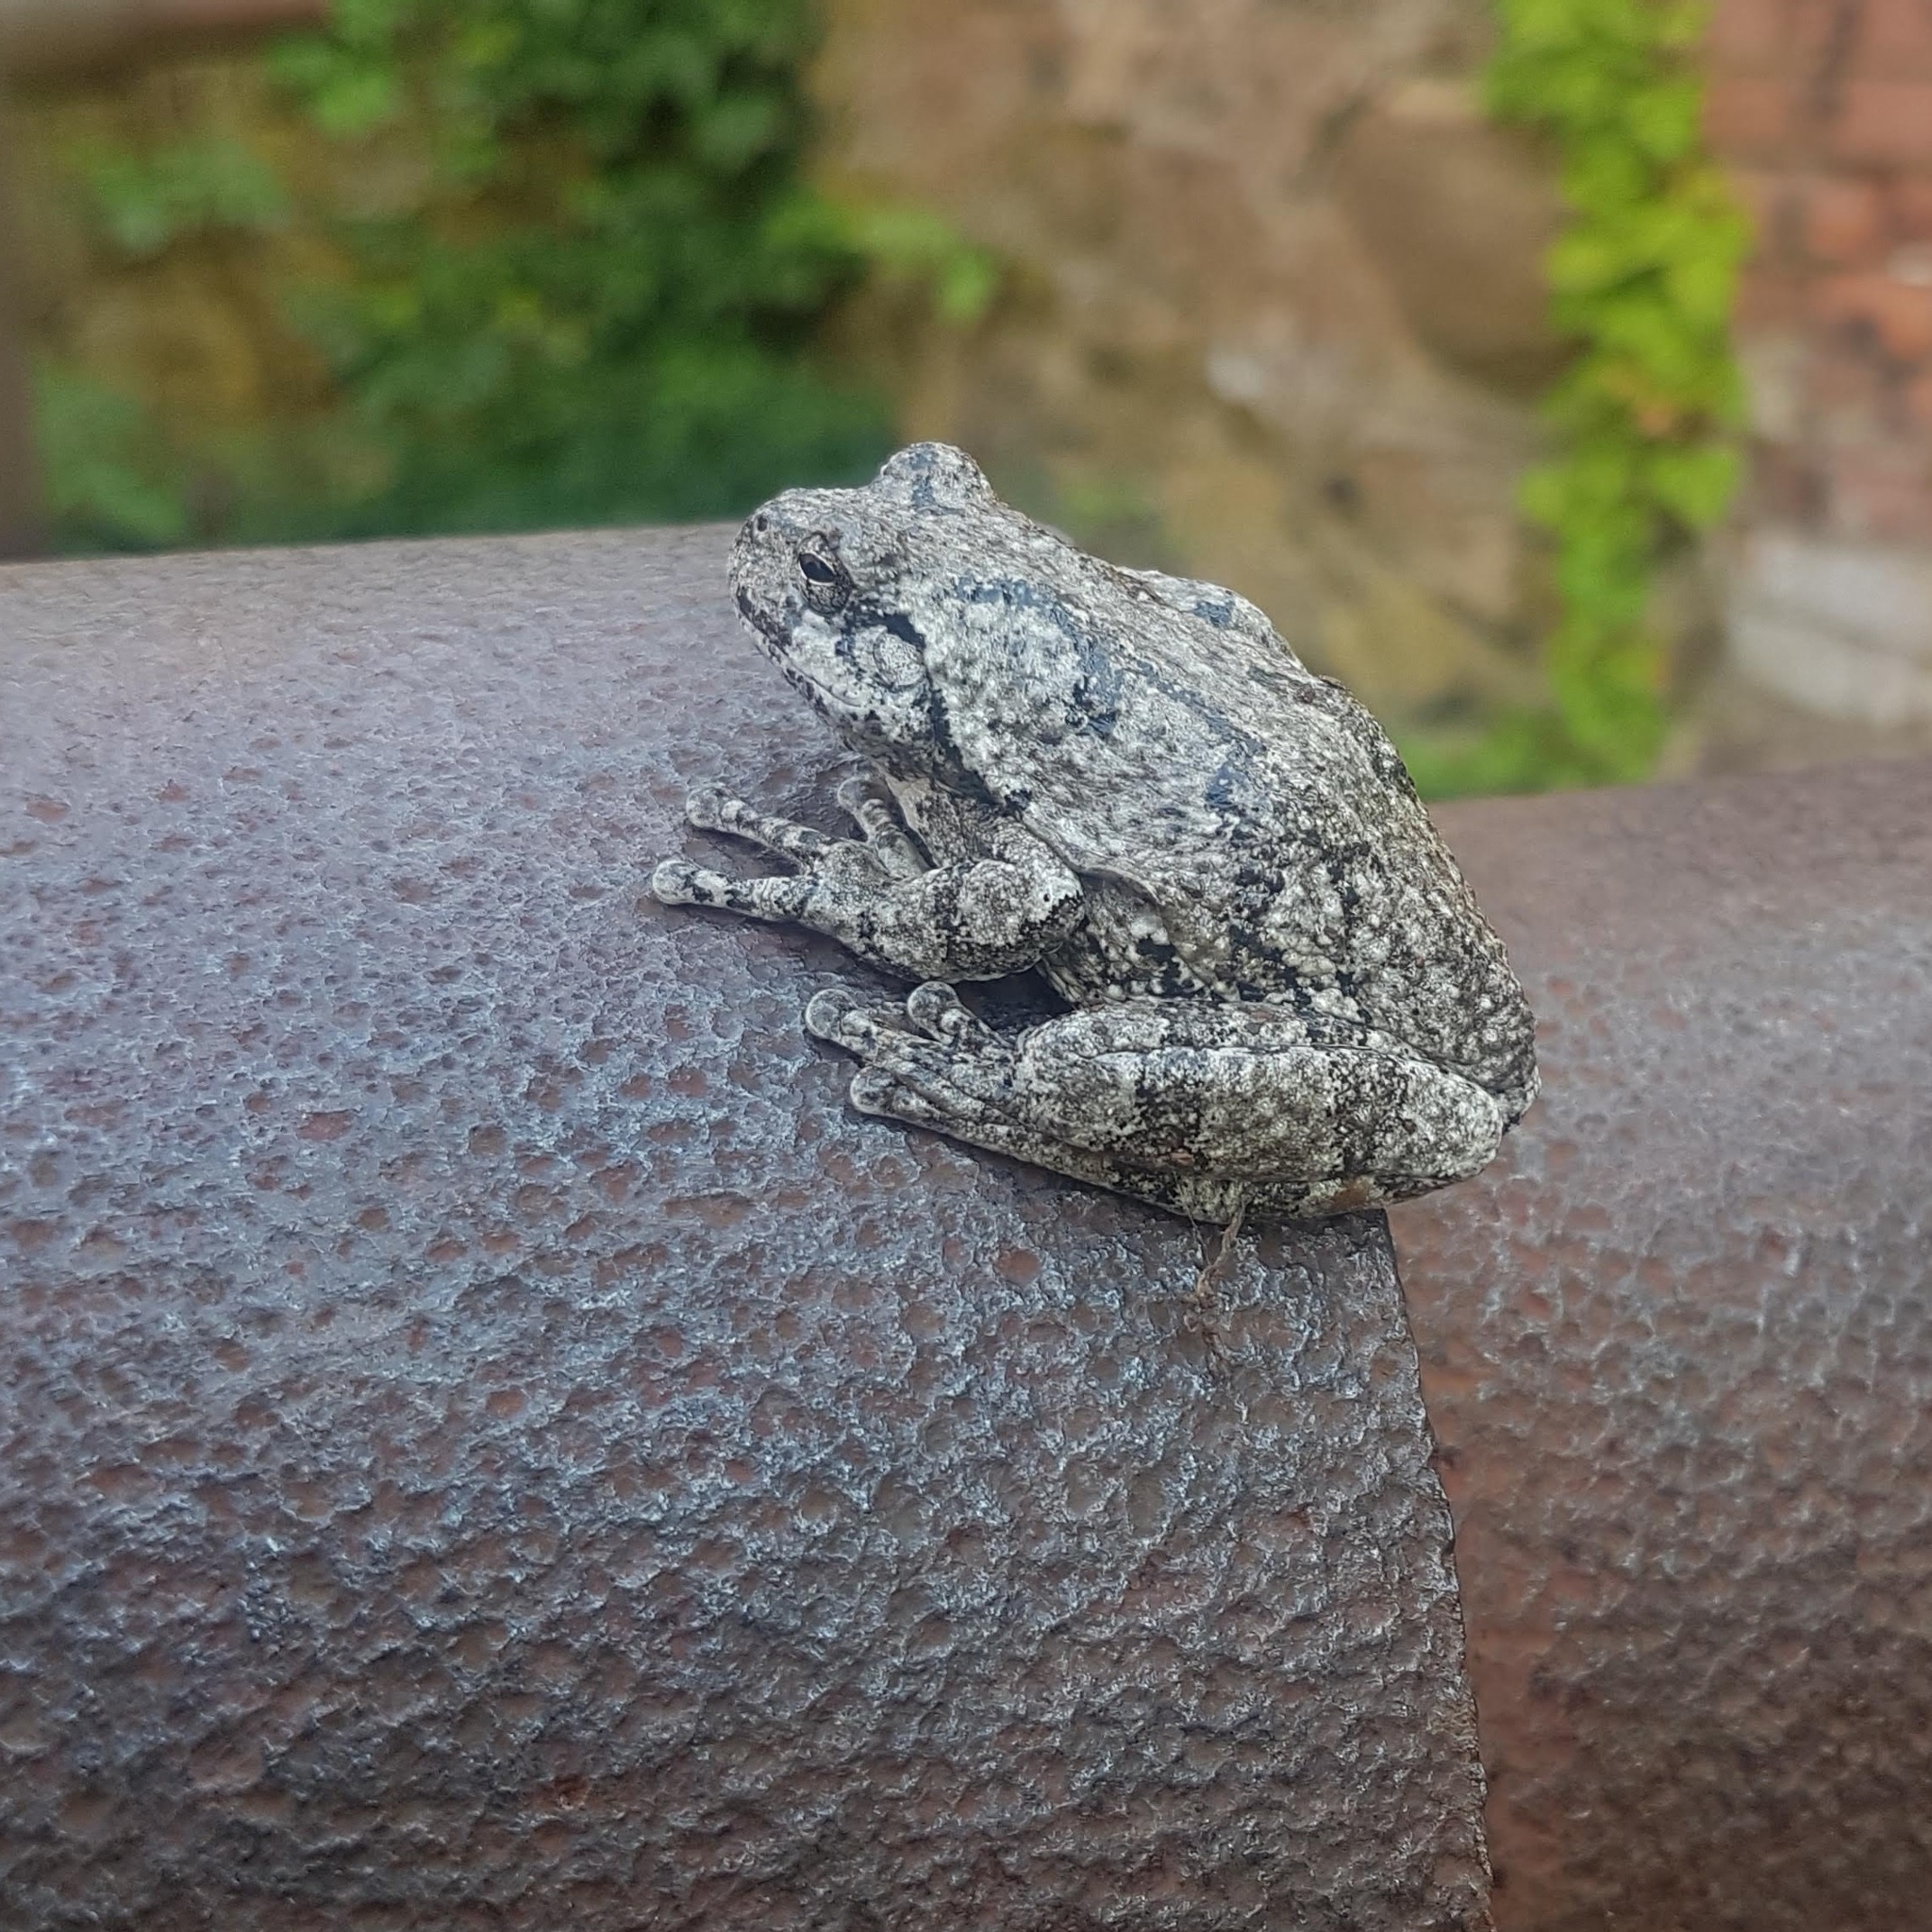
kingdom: Animalia
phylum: Chordata
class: Amphibia
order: Anura
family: Hylidae
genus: Dryophytes
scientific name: Dryophytes versicolor
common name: Gray treefrog
